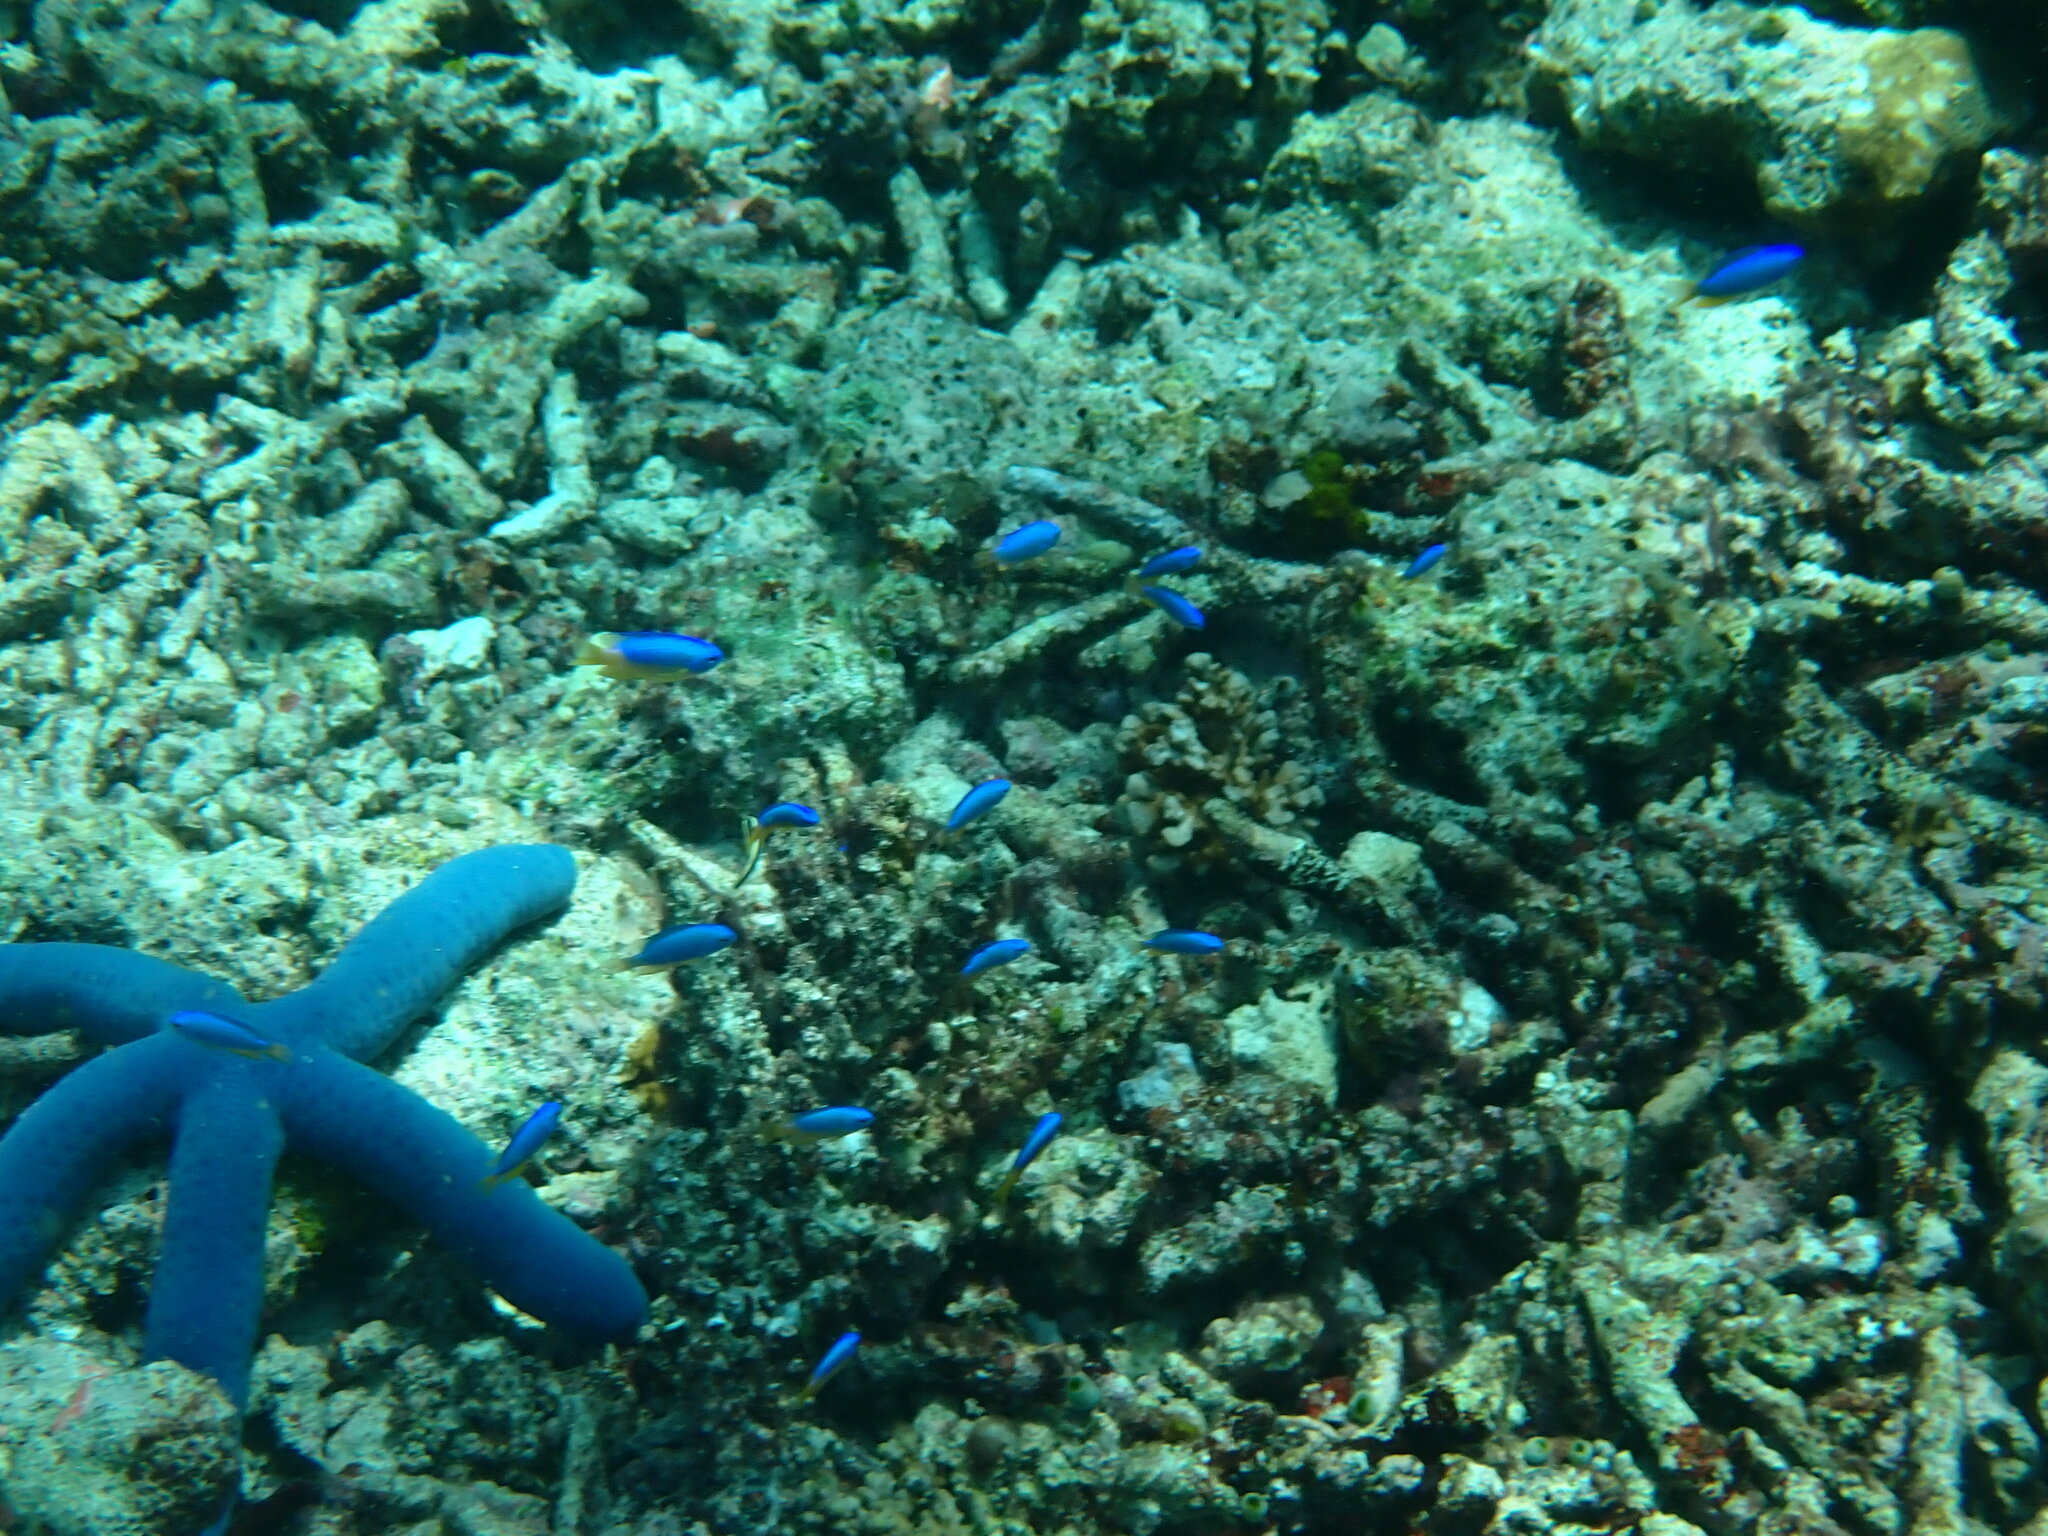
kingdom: Animalia
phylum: Chordata
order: Perciformes
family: Pomacentridae
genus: Pomacentrus
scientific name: Pomacentrus coelestis
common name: Neon damsel
